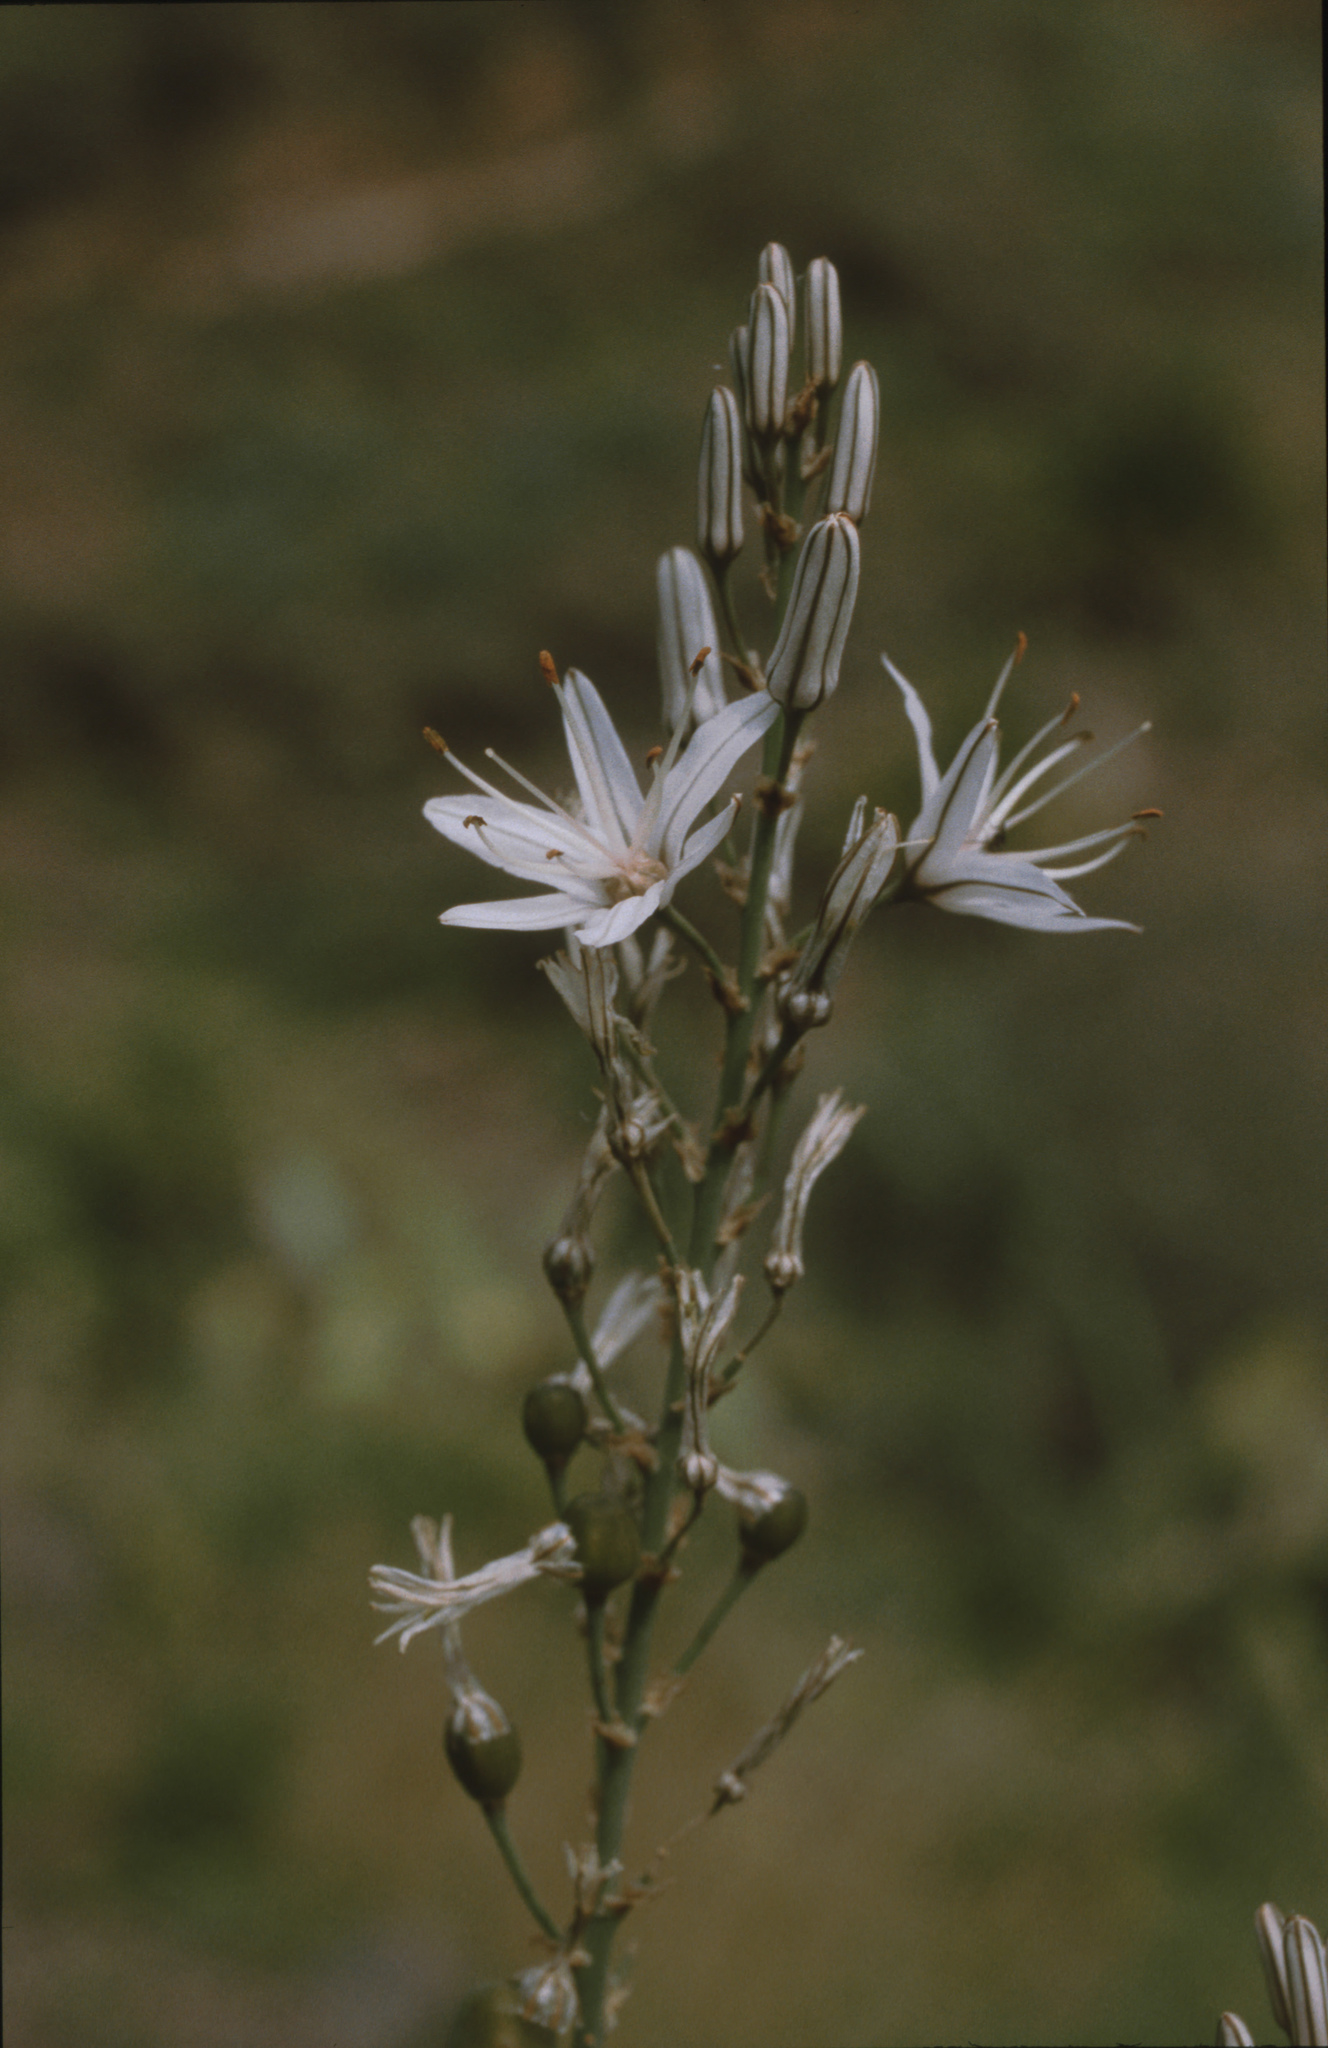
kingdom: Plantae
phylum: Tracheophyta
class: Liliopsida
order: Asparagales
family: Asphodelaceae
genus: Asphodelus
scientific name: Asphodelus ramosus
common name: Silverrod
